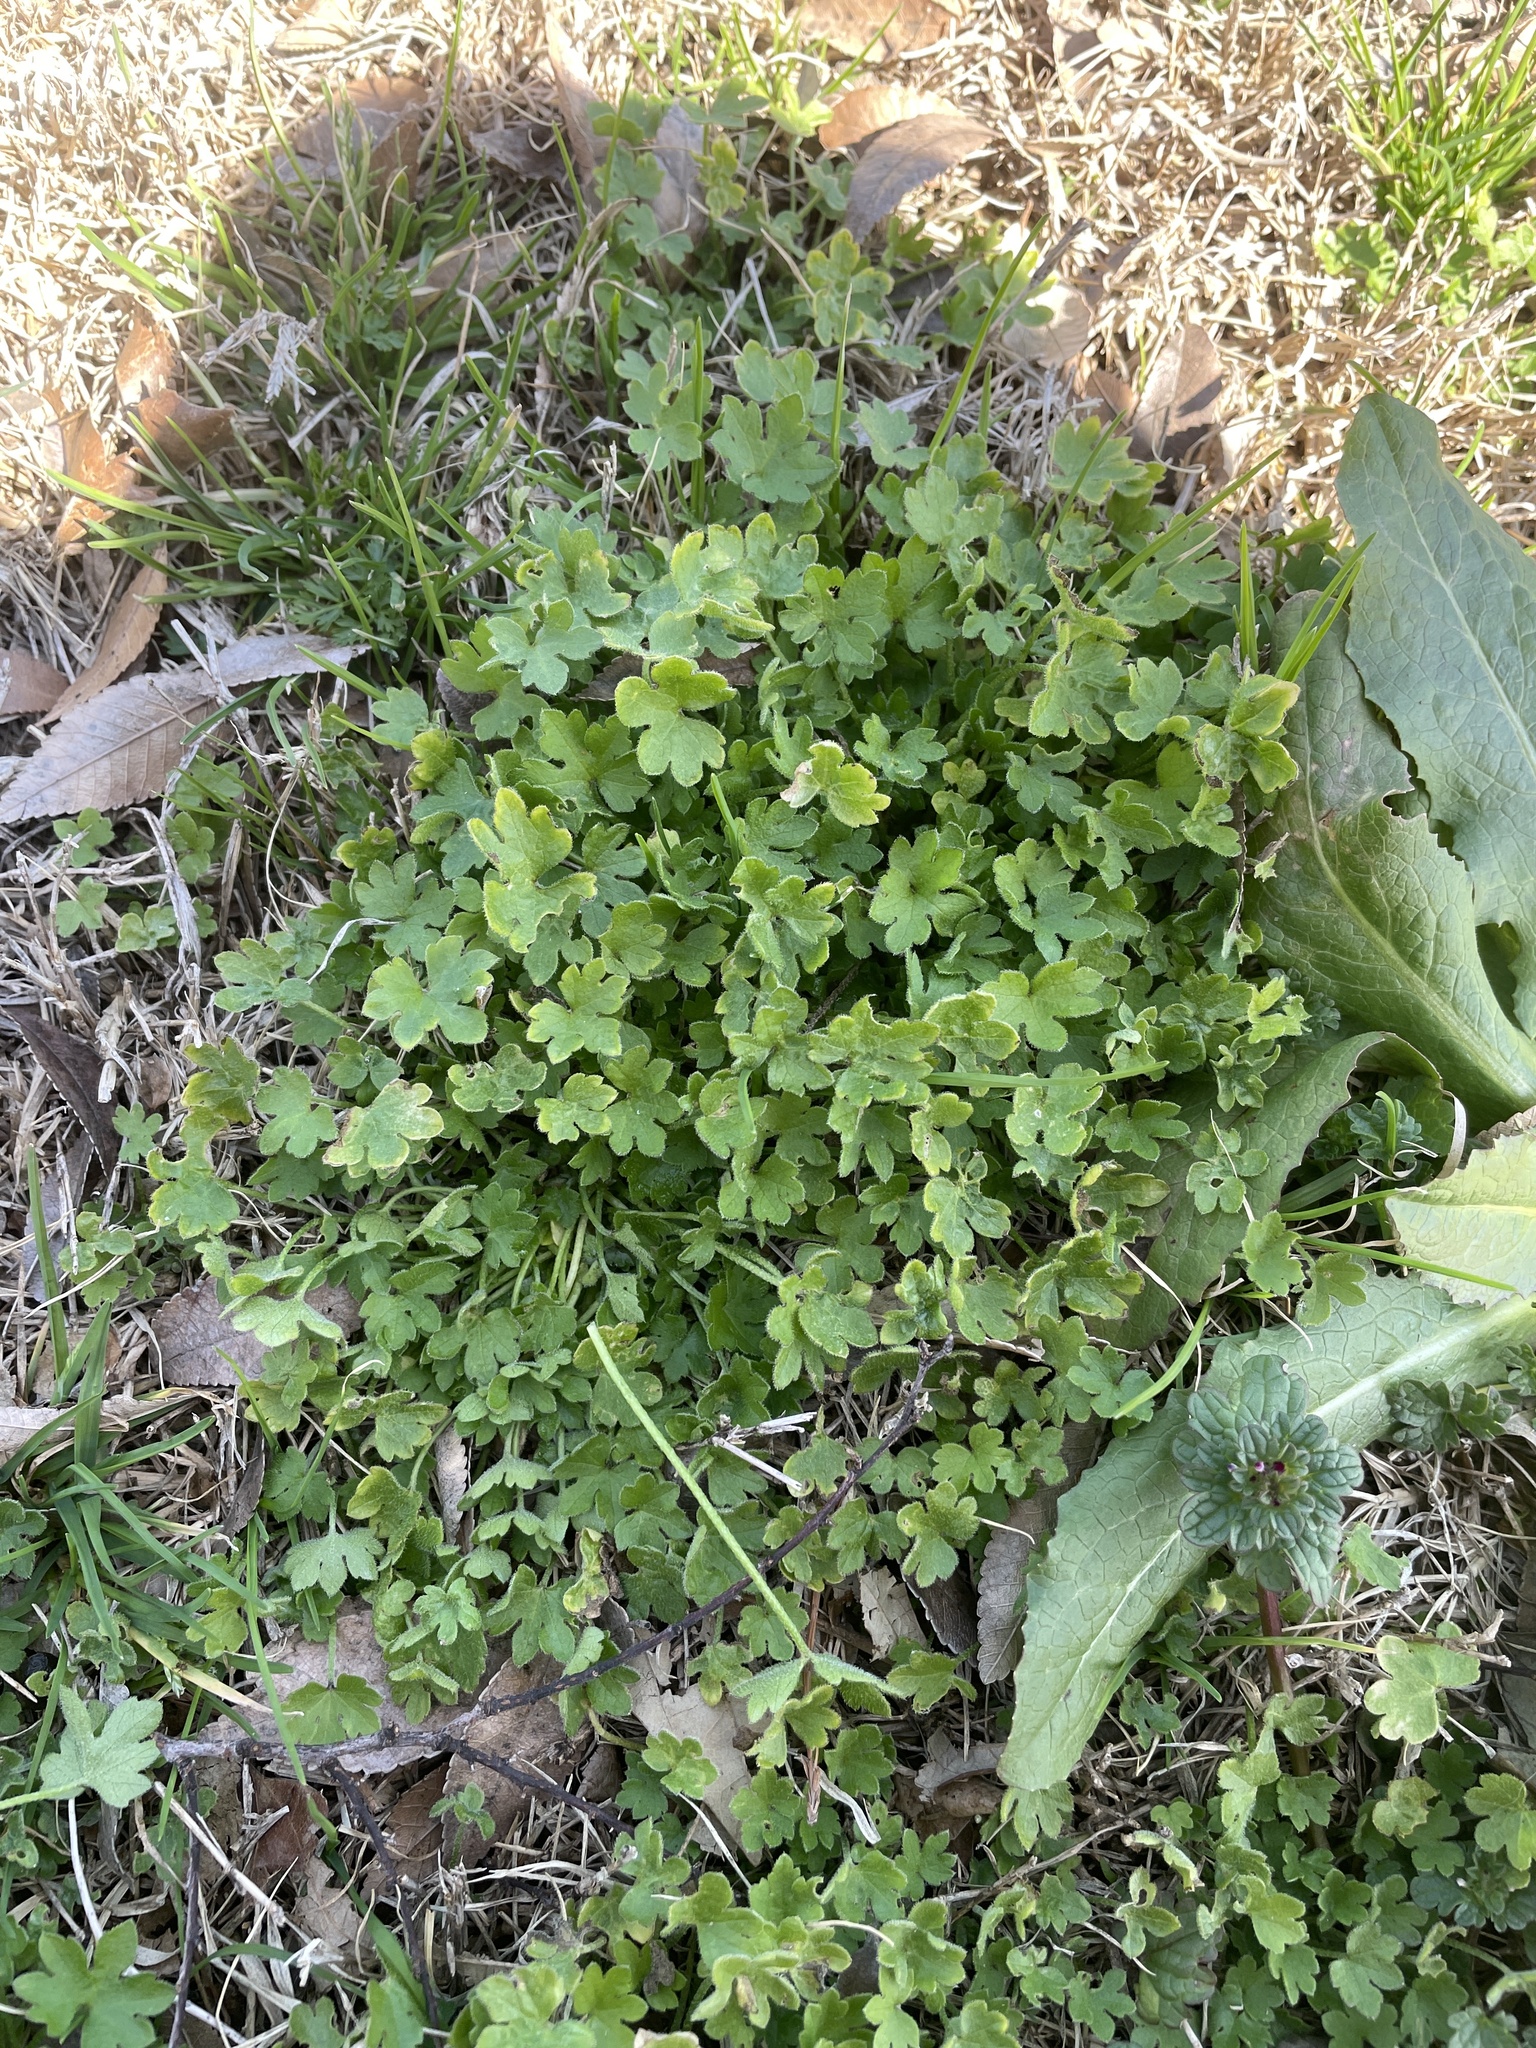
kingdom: Plantae
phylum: Tracheophyta
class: Magnoliopsida
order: Apiales
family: Apiaceae
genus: Bowlesia
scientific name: Bowlesia incana
